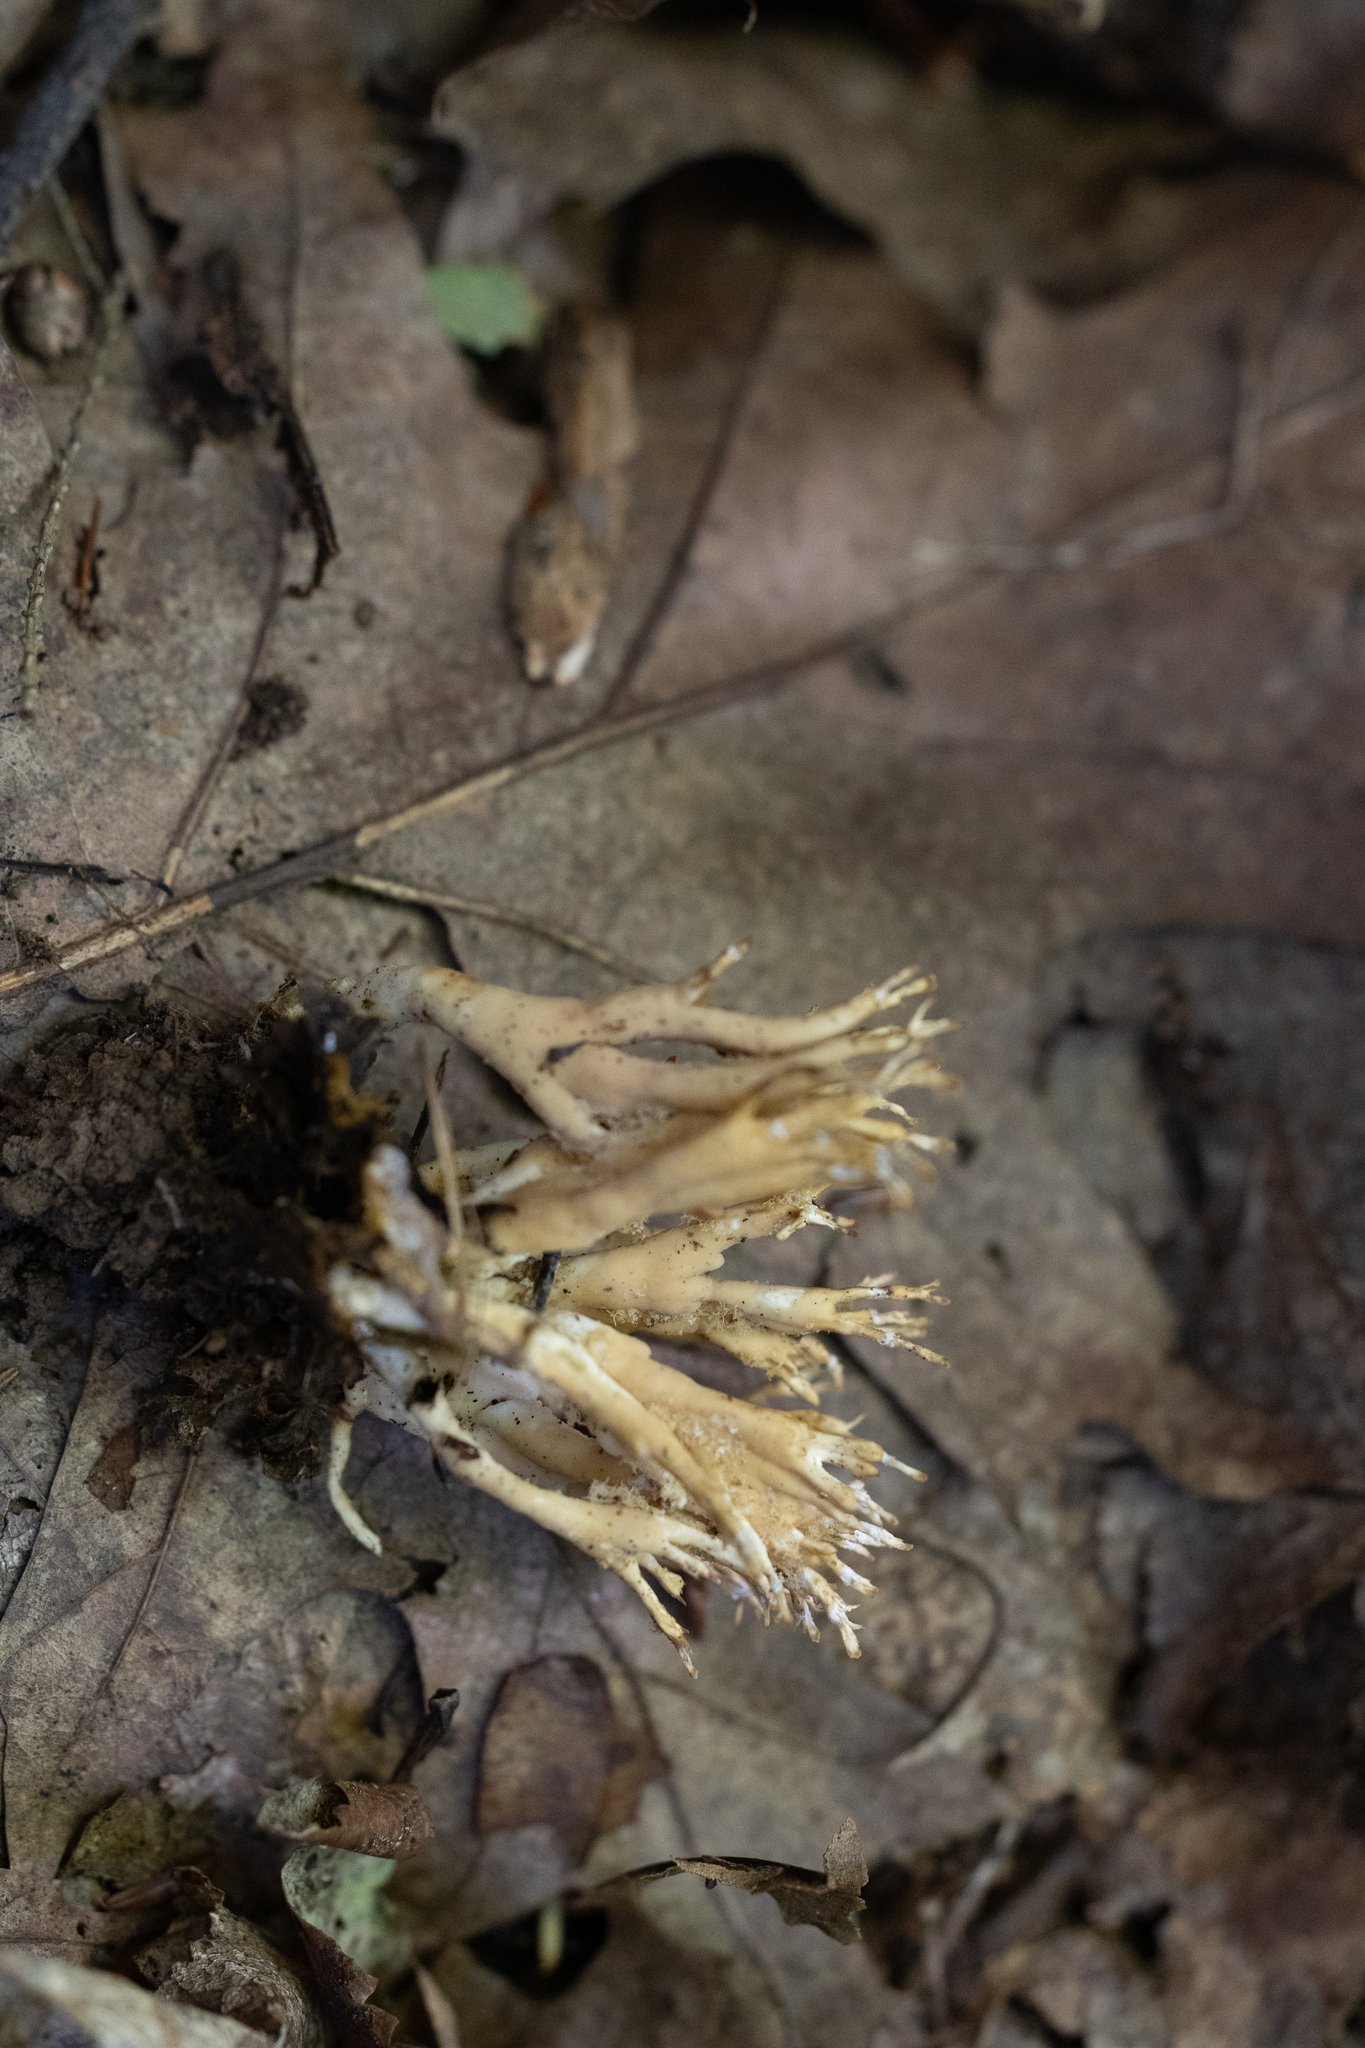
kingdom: Fungi
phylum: Basidiomycota
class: Agaricomycetes
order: Cantharellales
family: Hydnaceae
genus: Clavulina
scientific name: Clavulina coralloides
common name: Crested coral
